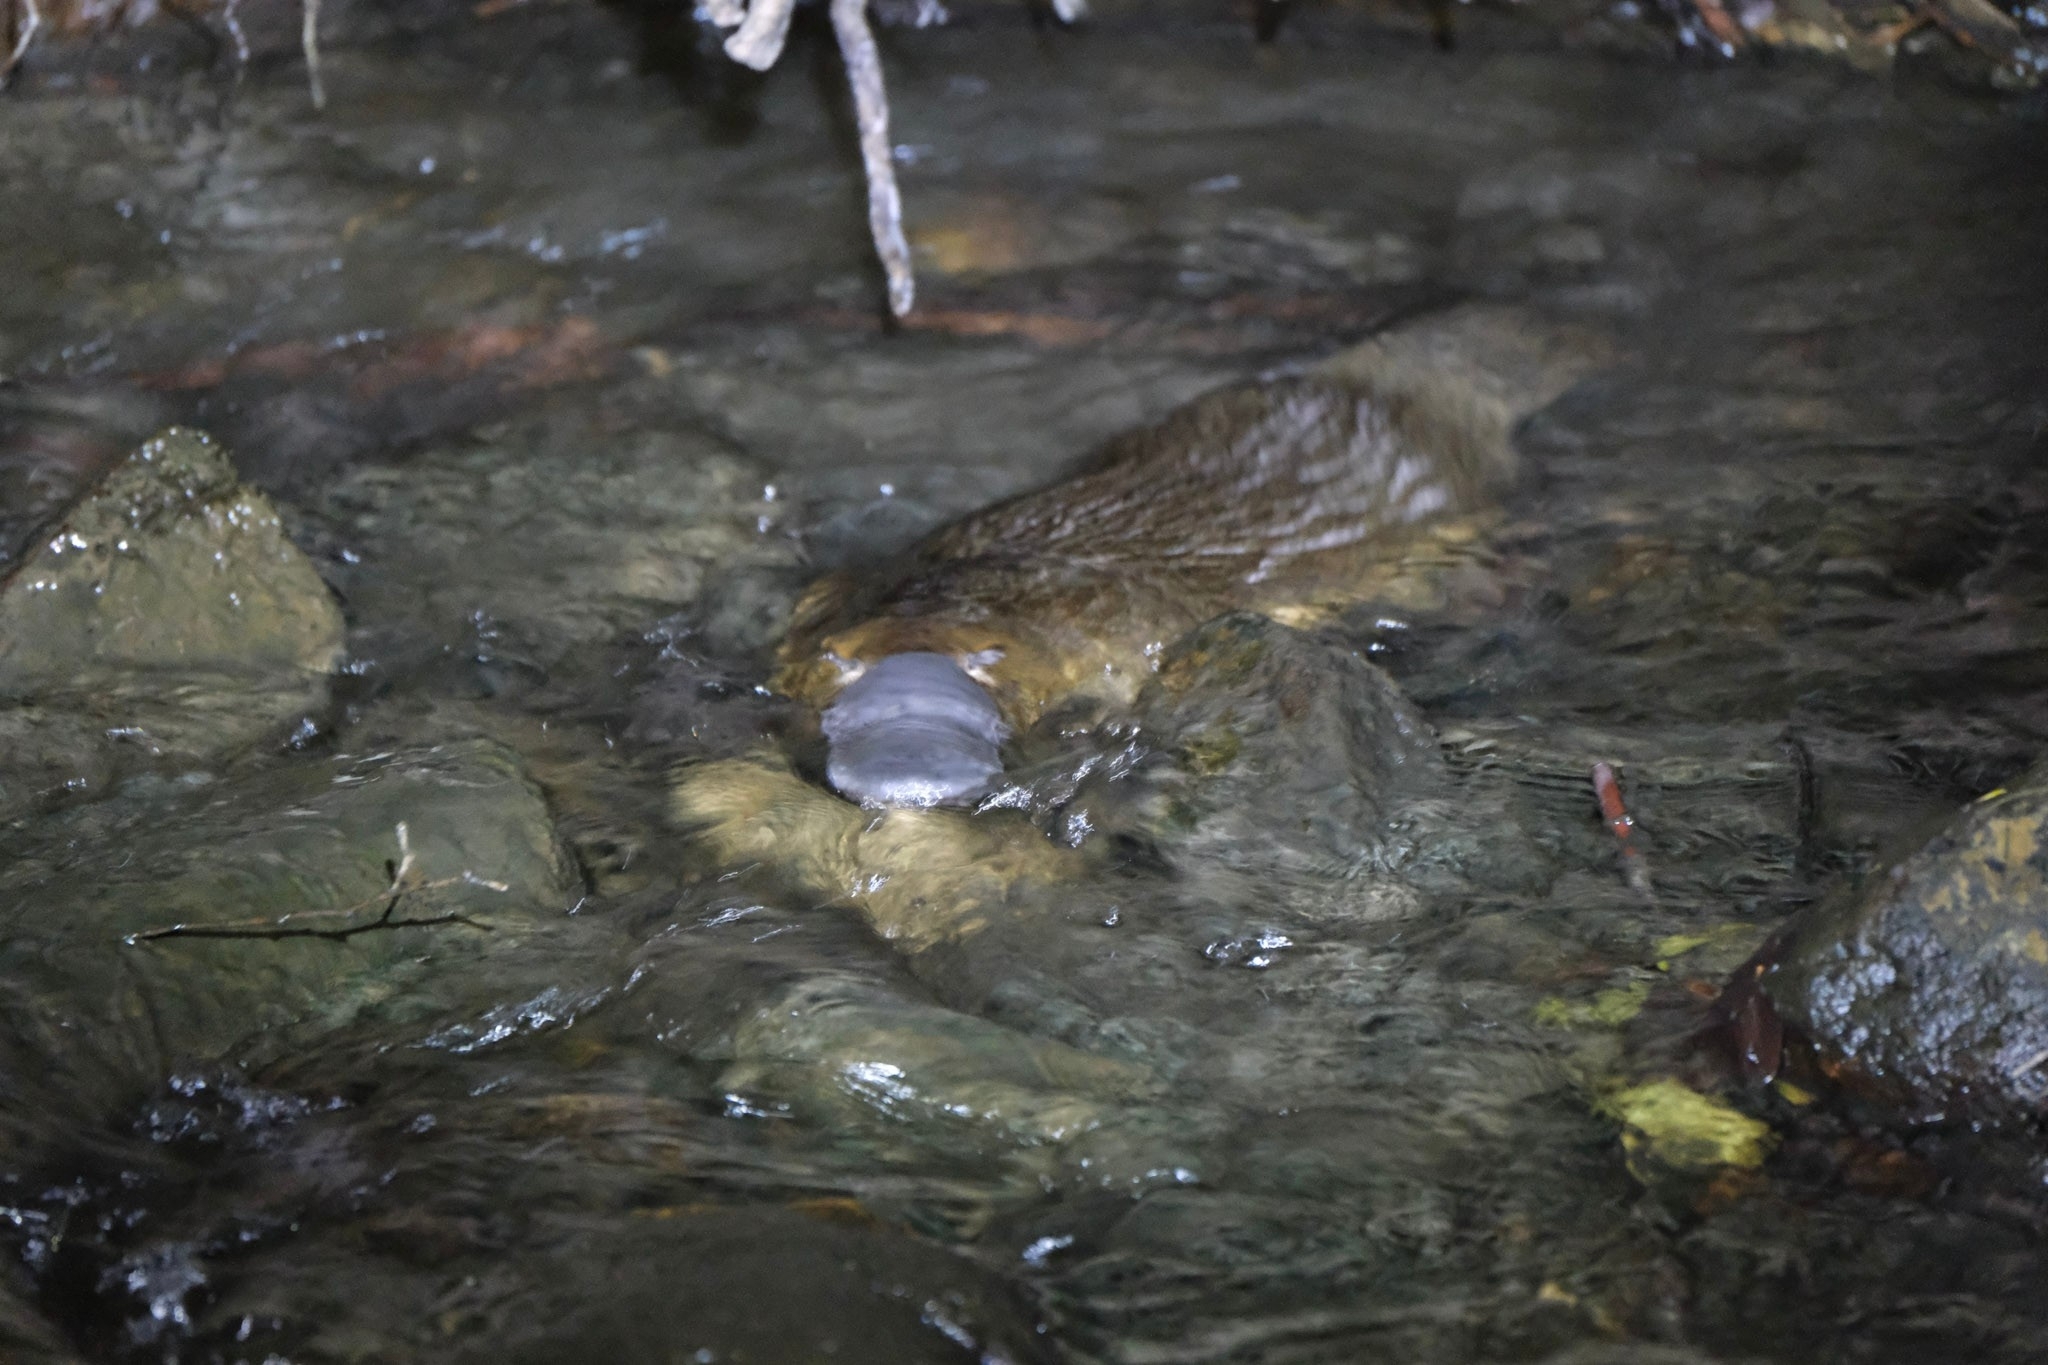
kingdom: Animalia
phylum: Chordata
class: Mammalia
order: Monotremata
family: Ornithorhynchidae
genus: Ornithorhynchus
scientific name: Ornithorhynchus anatinus
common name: Platypus
